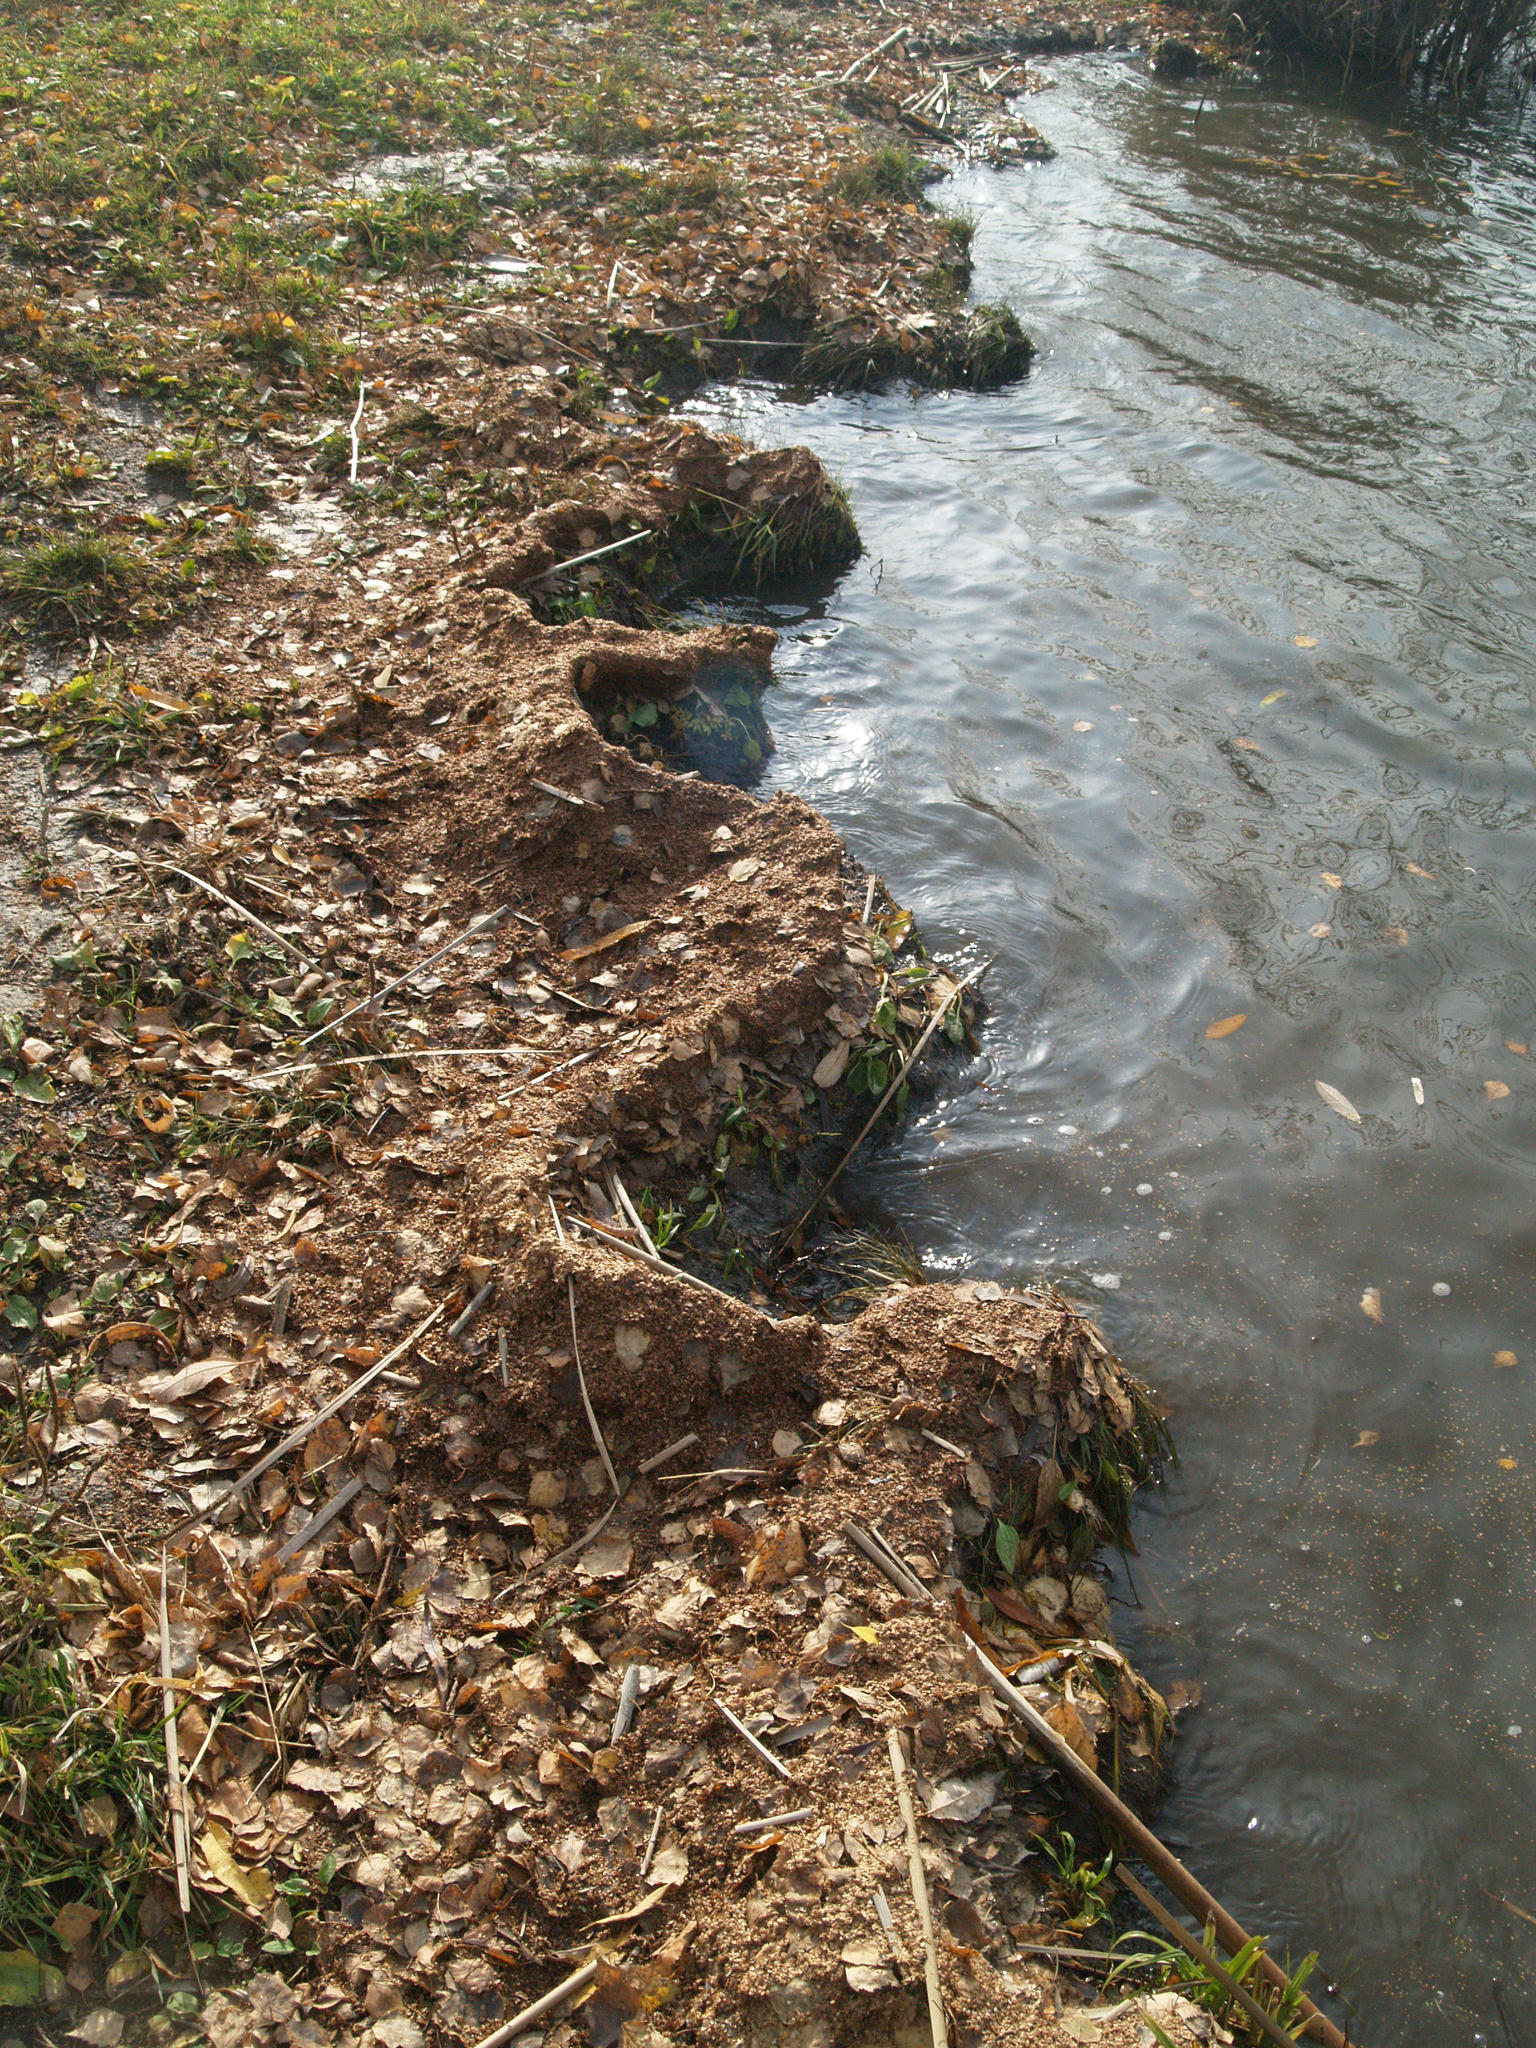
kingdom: Plantae
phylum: Tracheophyta
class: Magnoliopsida
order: Fagales
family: Betulaceae
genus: Betula
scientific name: Betula pendula
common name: Silver birch
